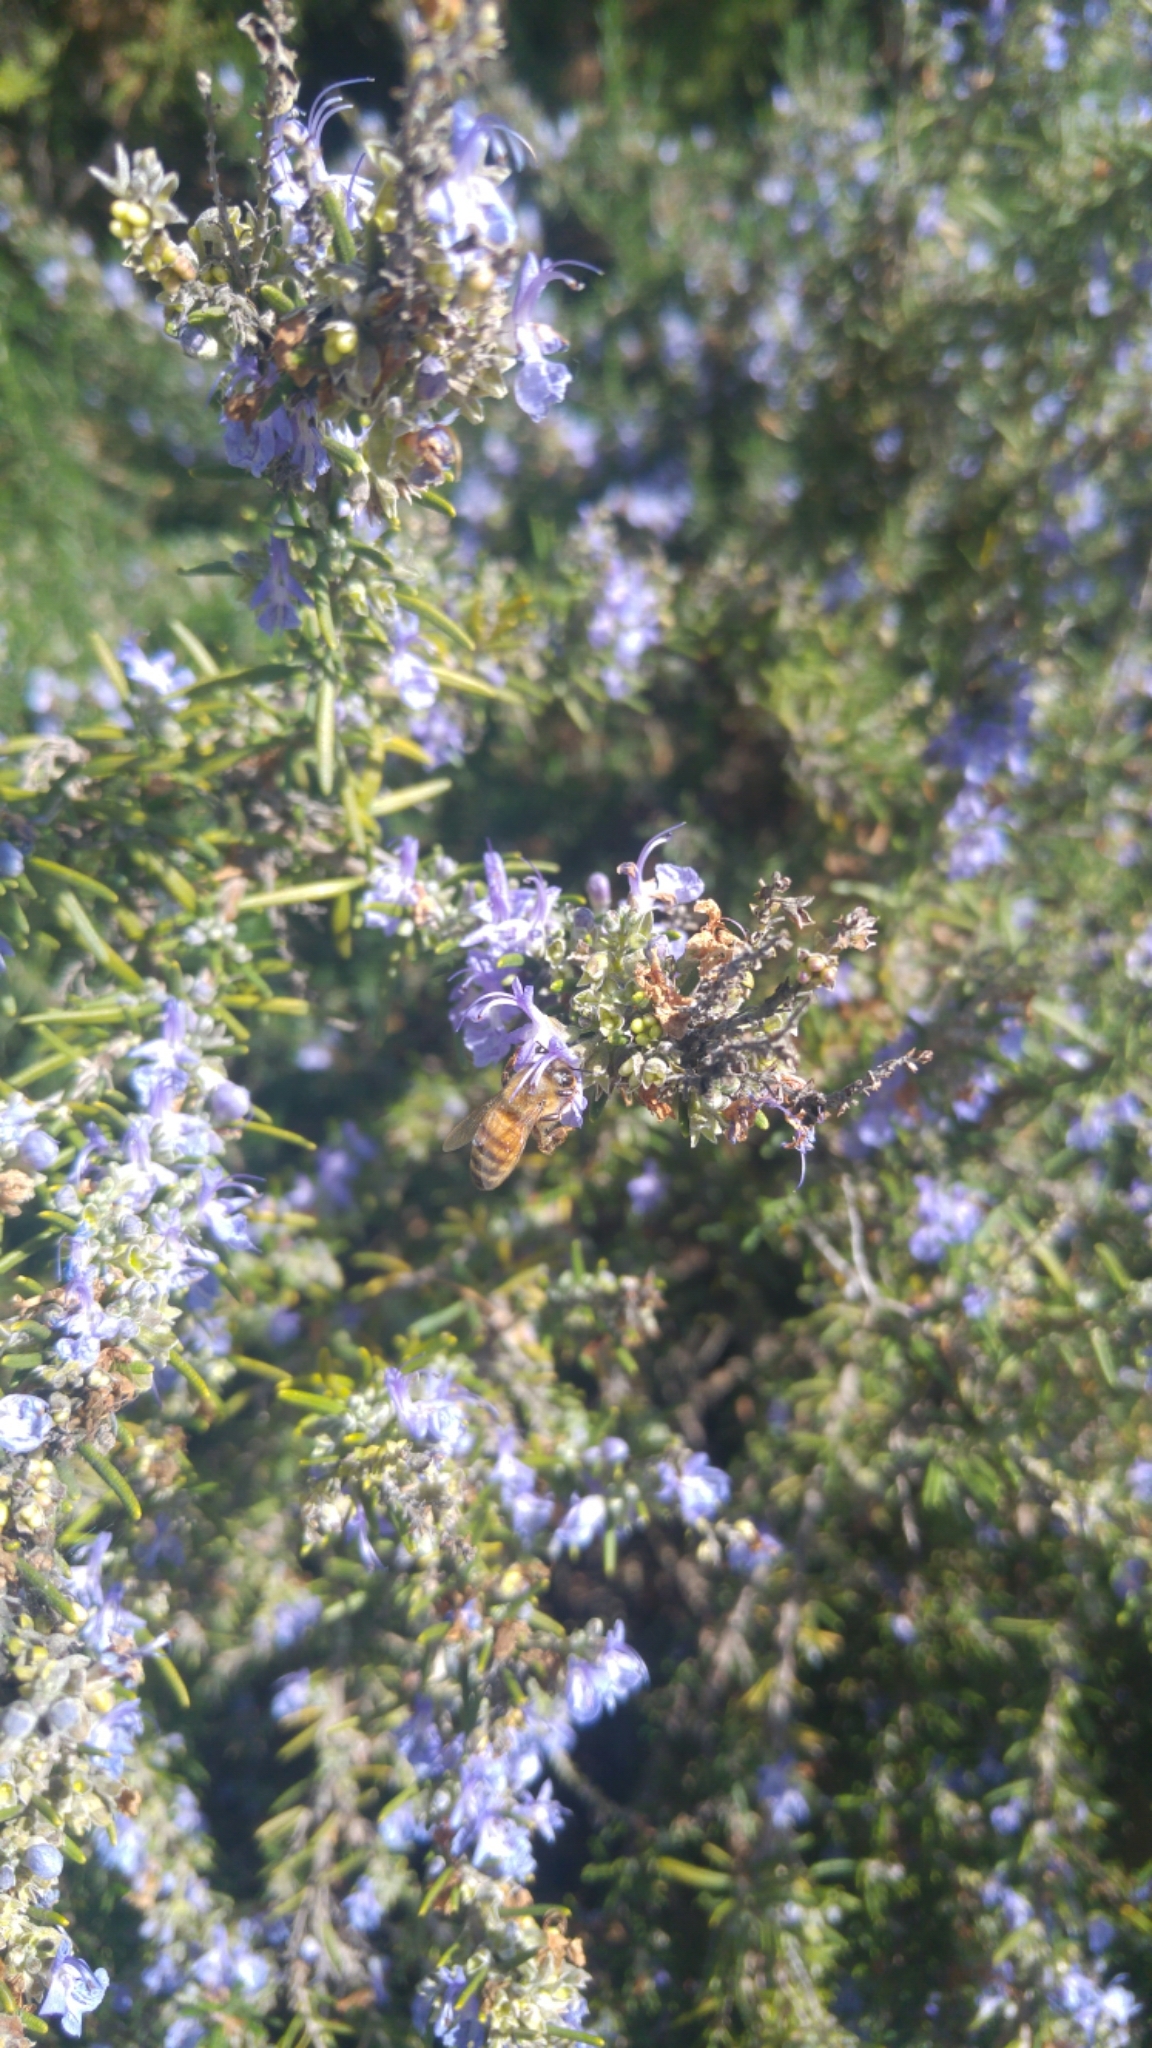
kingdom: Animalia
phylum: Arthropoda
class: Insecta
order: Hymenoptera
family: Apidae
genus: Apis
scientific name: Apis mellifera
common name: Honey bee
